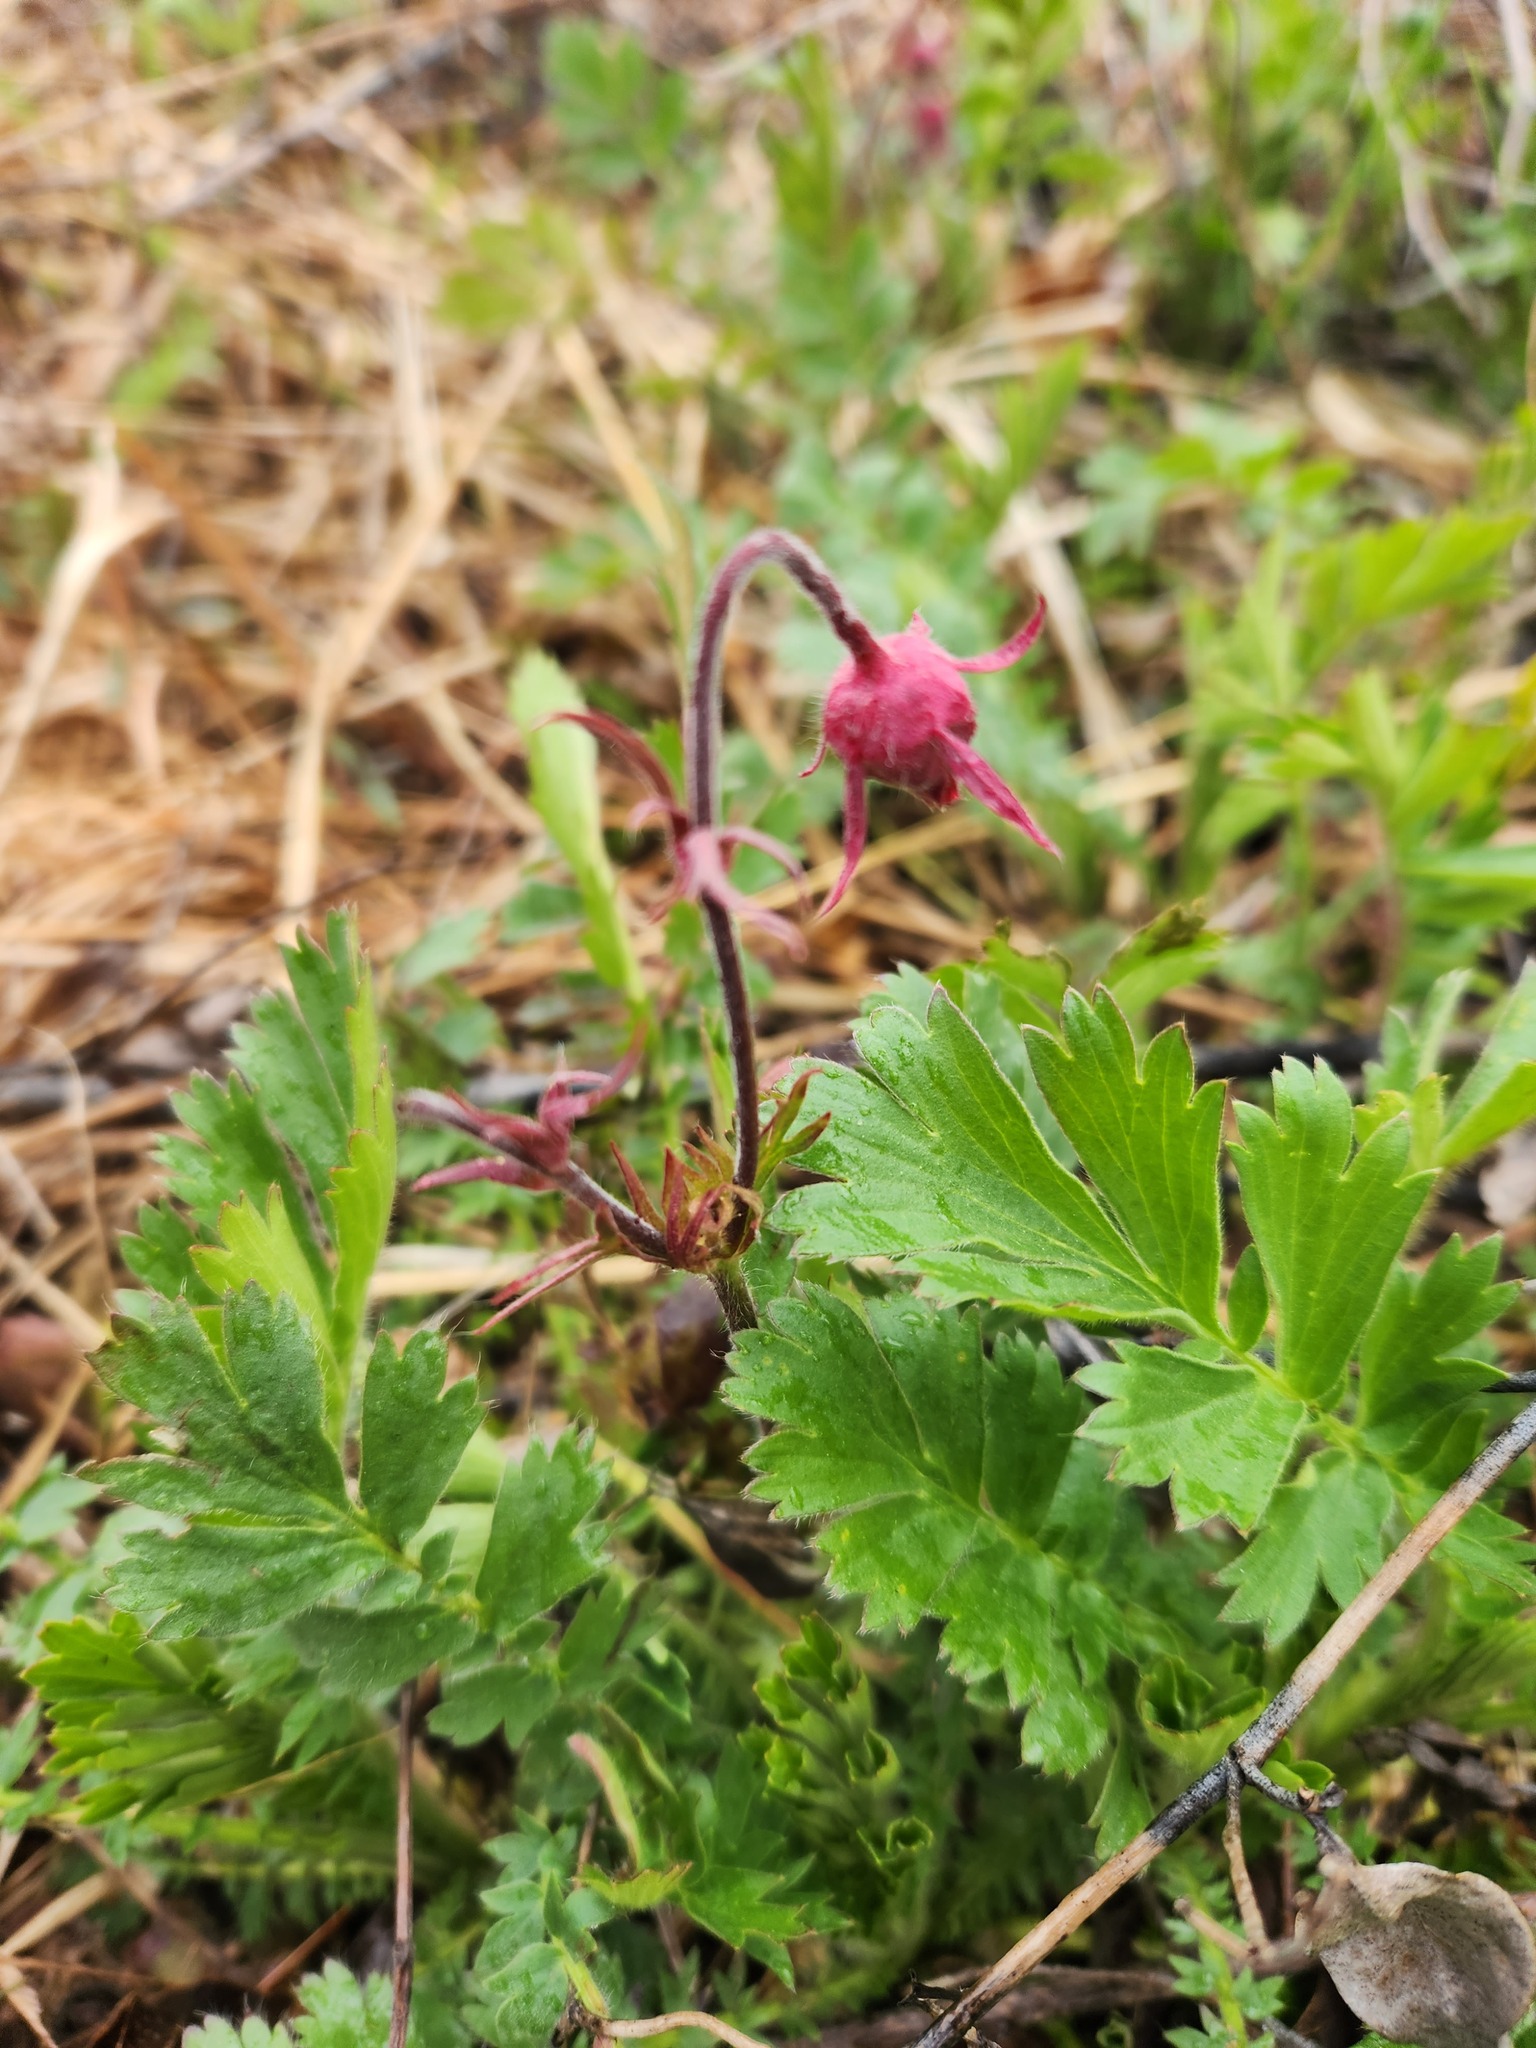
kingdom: Plantae
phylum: Tracheophyta
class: Magnoliopsida
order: Rosales
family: Rosaceae
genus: Geum
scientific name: Geum triflorum
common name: Old man's whiskers
